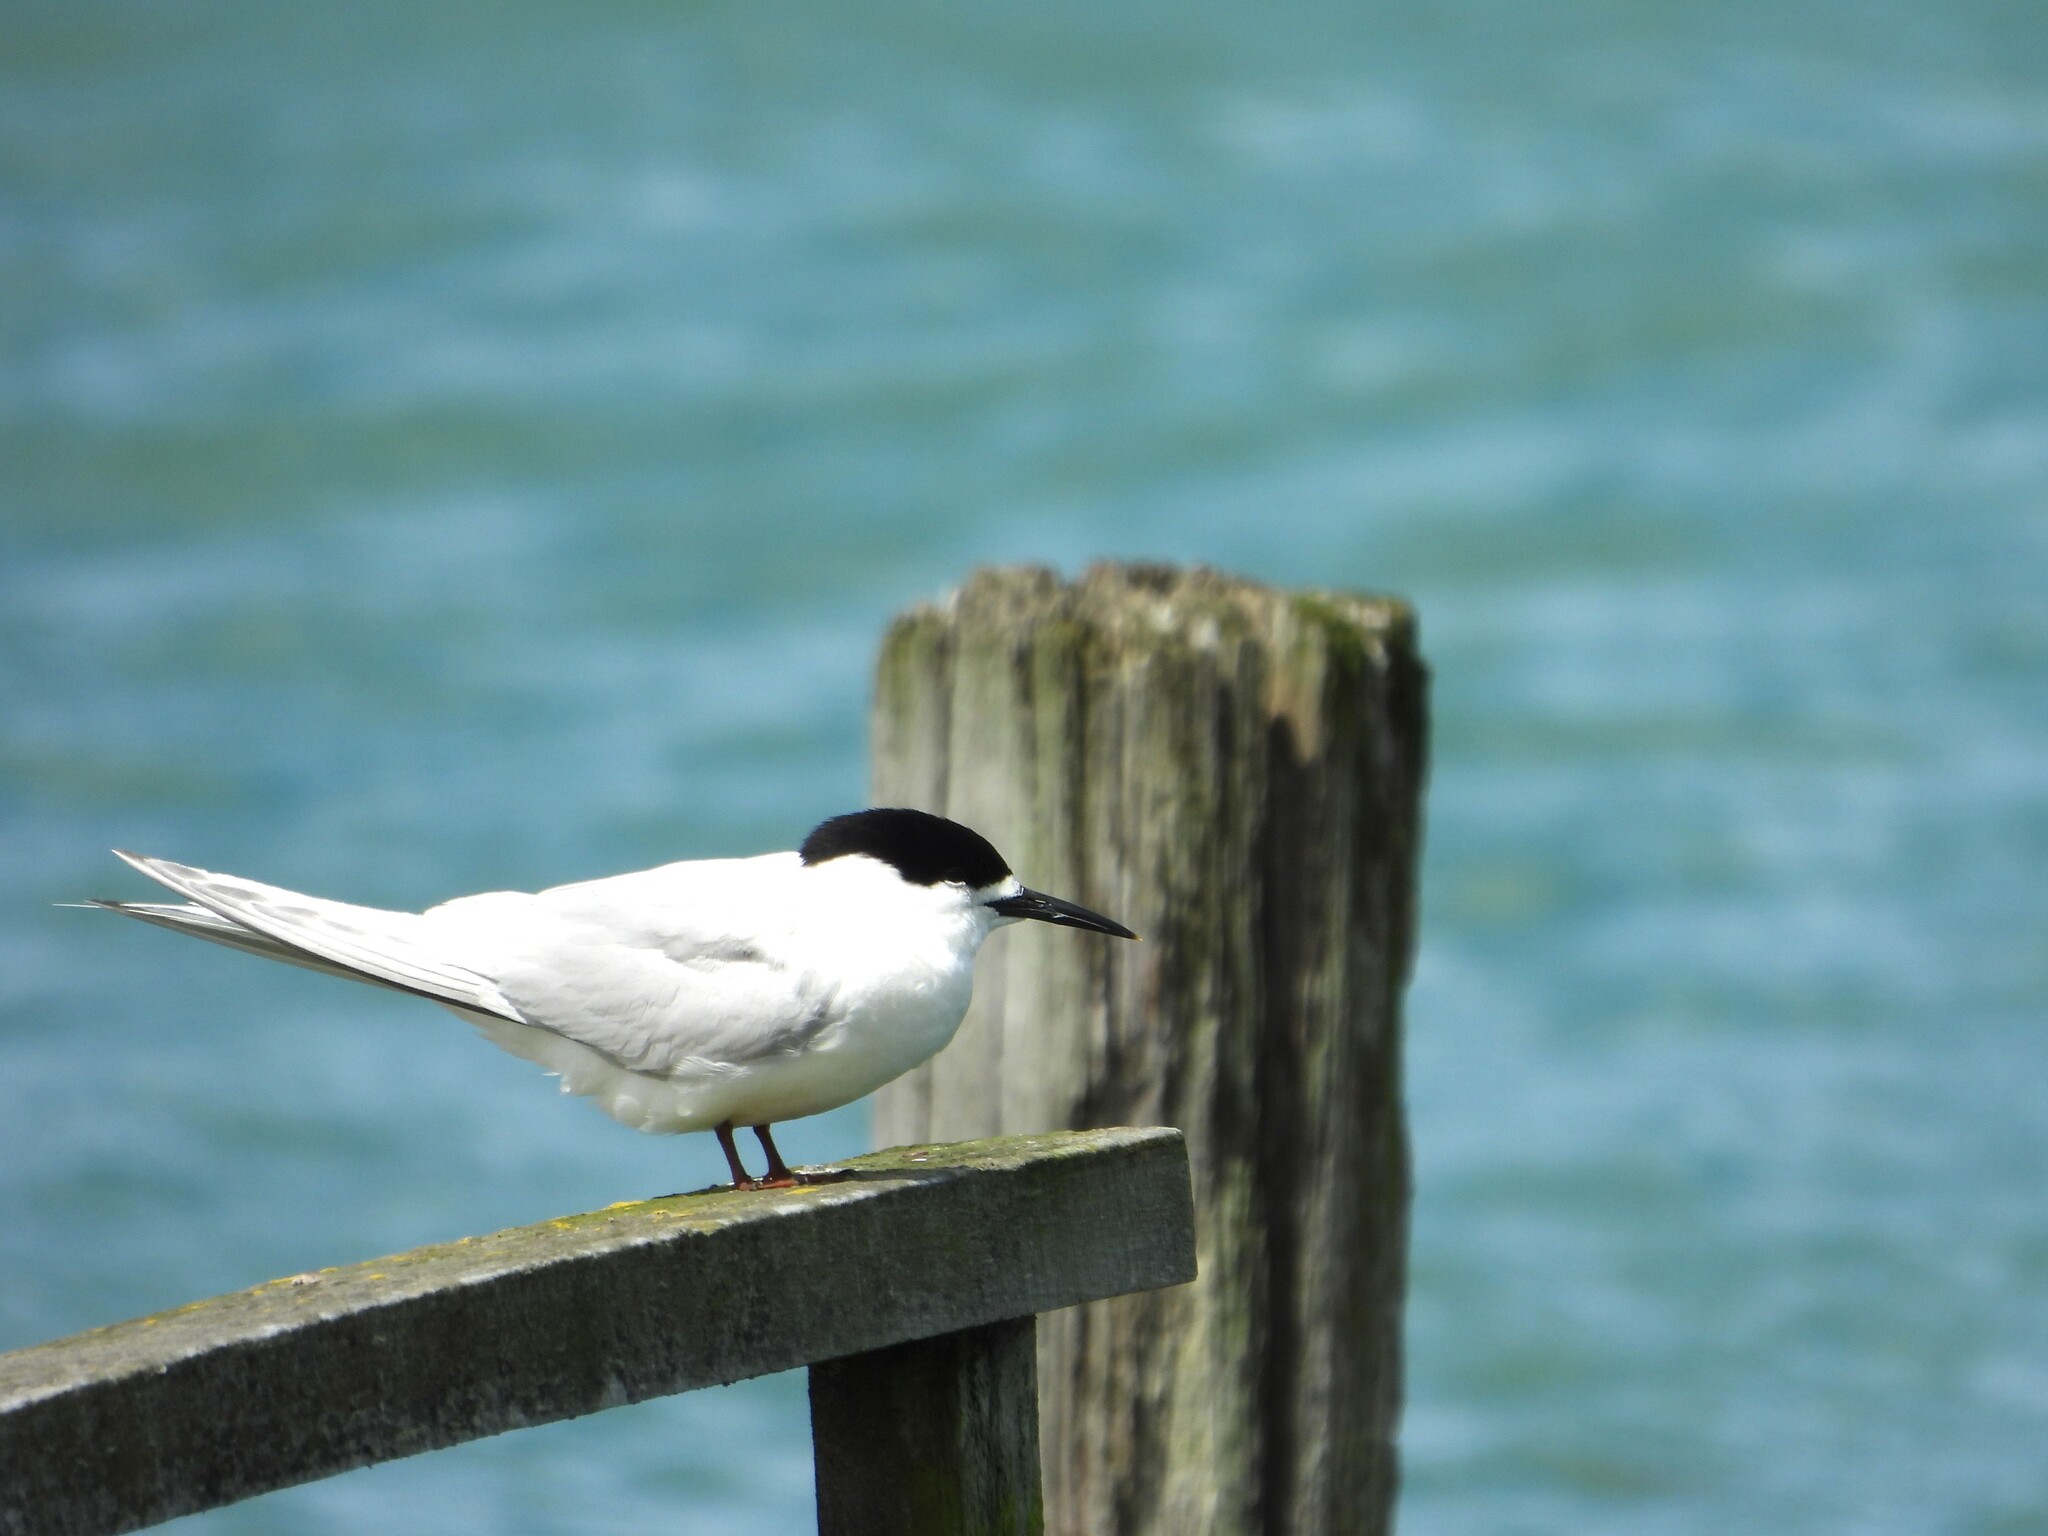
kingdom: Animalia
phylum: Chordata
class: Aves
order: Charadriiformes
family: Laridae
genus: Sterna
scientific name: Sterna striata
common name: White-fronted tern
